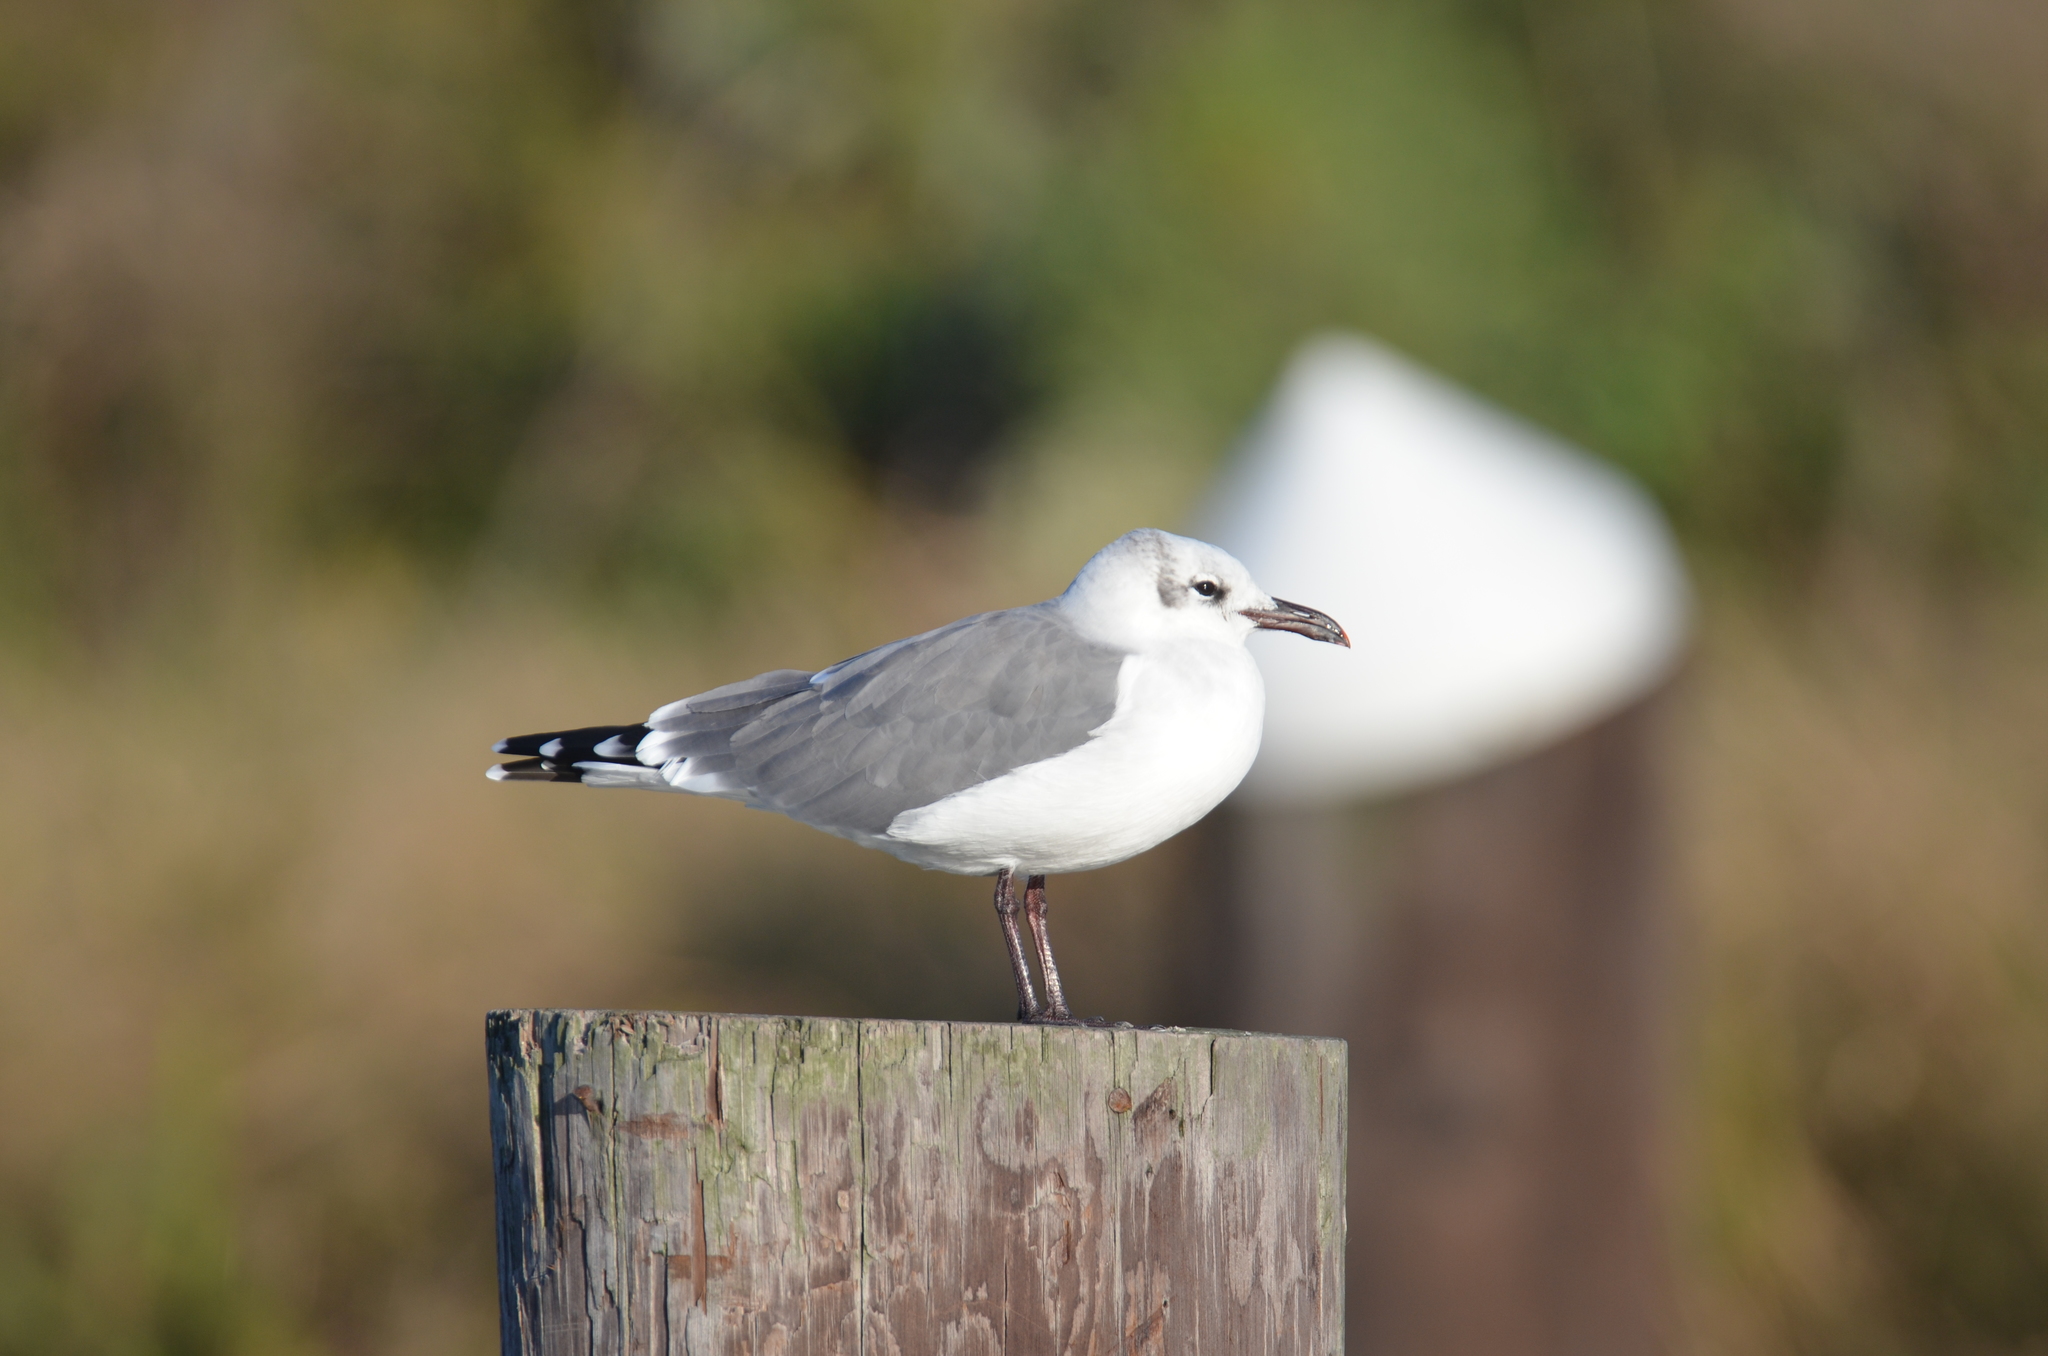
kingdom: Animalia
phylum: Chordata
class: Aves
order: Charadriiformes
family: Laridae
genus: Leucophaeus
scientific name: Leucophaeus atricilla
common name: Laughing gull
